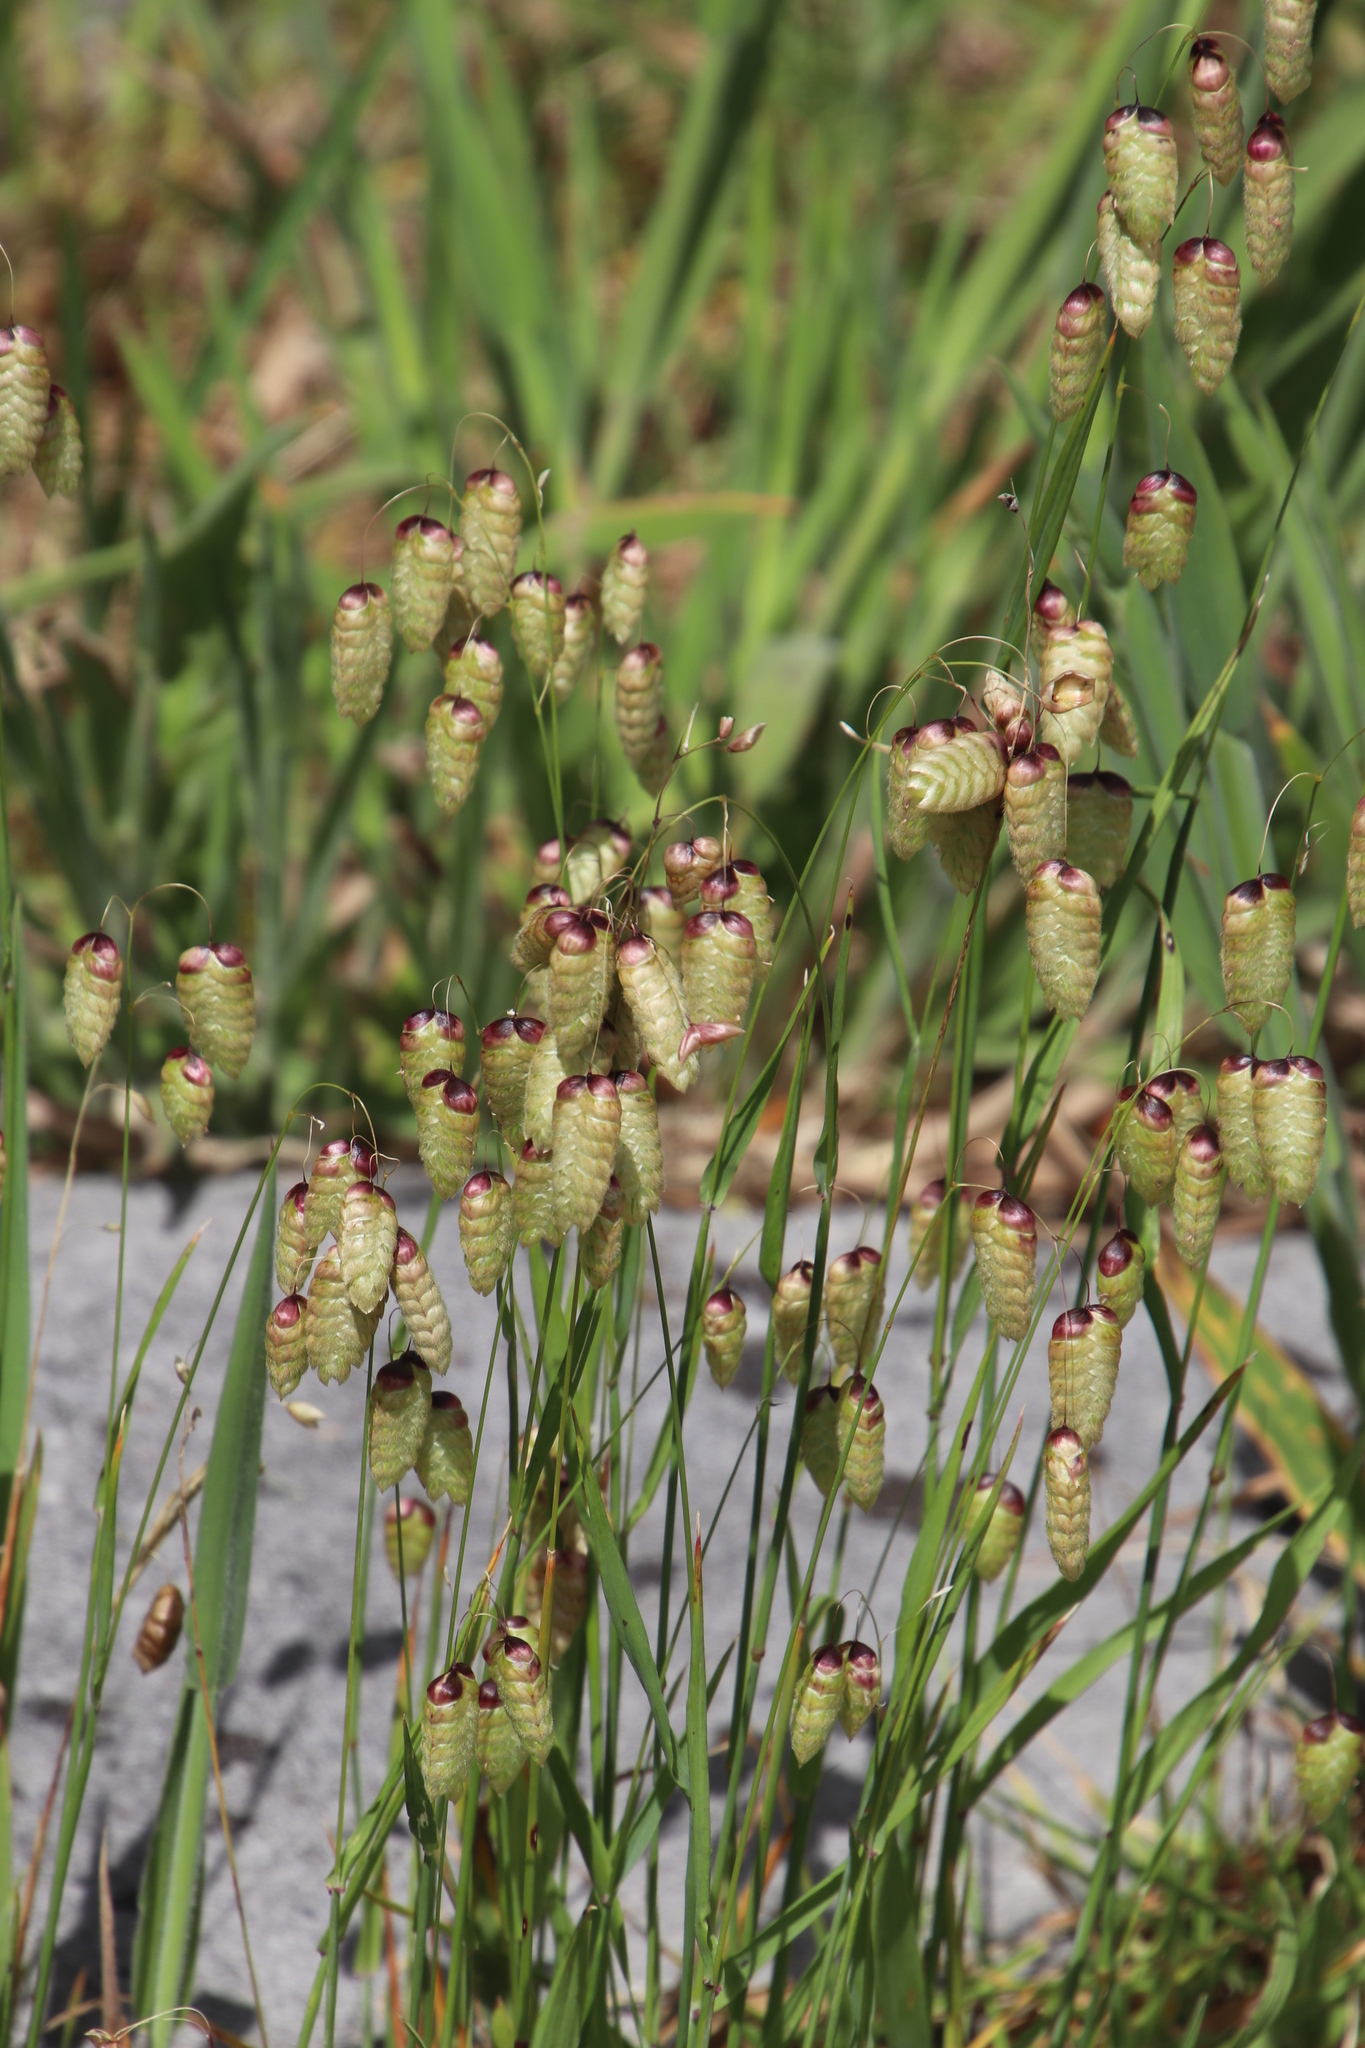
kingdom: Plantae
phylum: Tracheophyta
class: Liliopsida
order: Poales
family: Poaceae
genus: Briza
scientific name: Briza maxima
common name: Big quakinggrass
